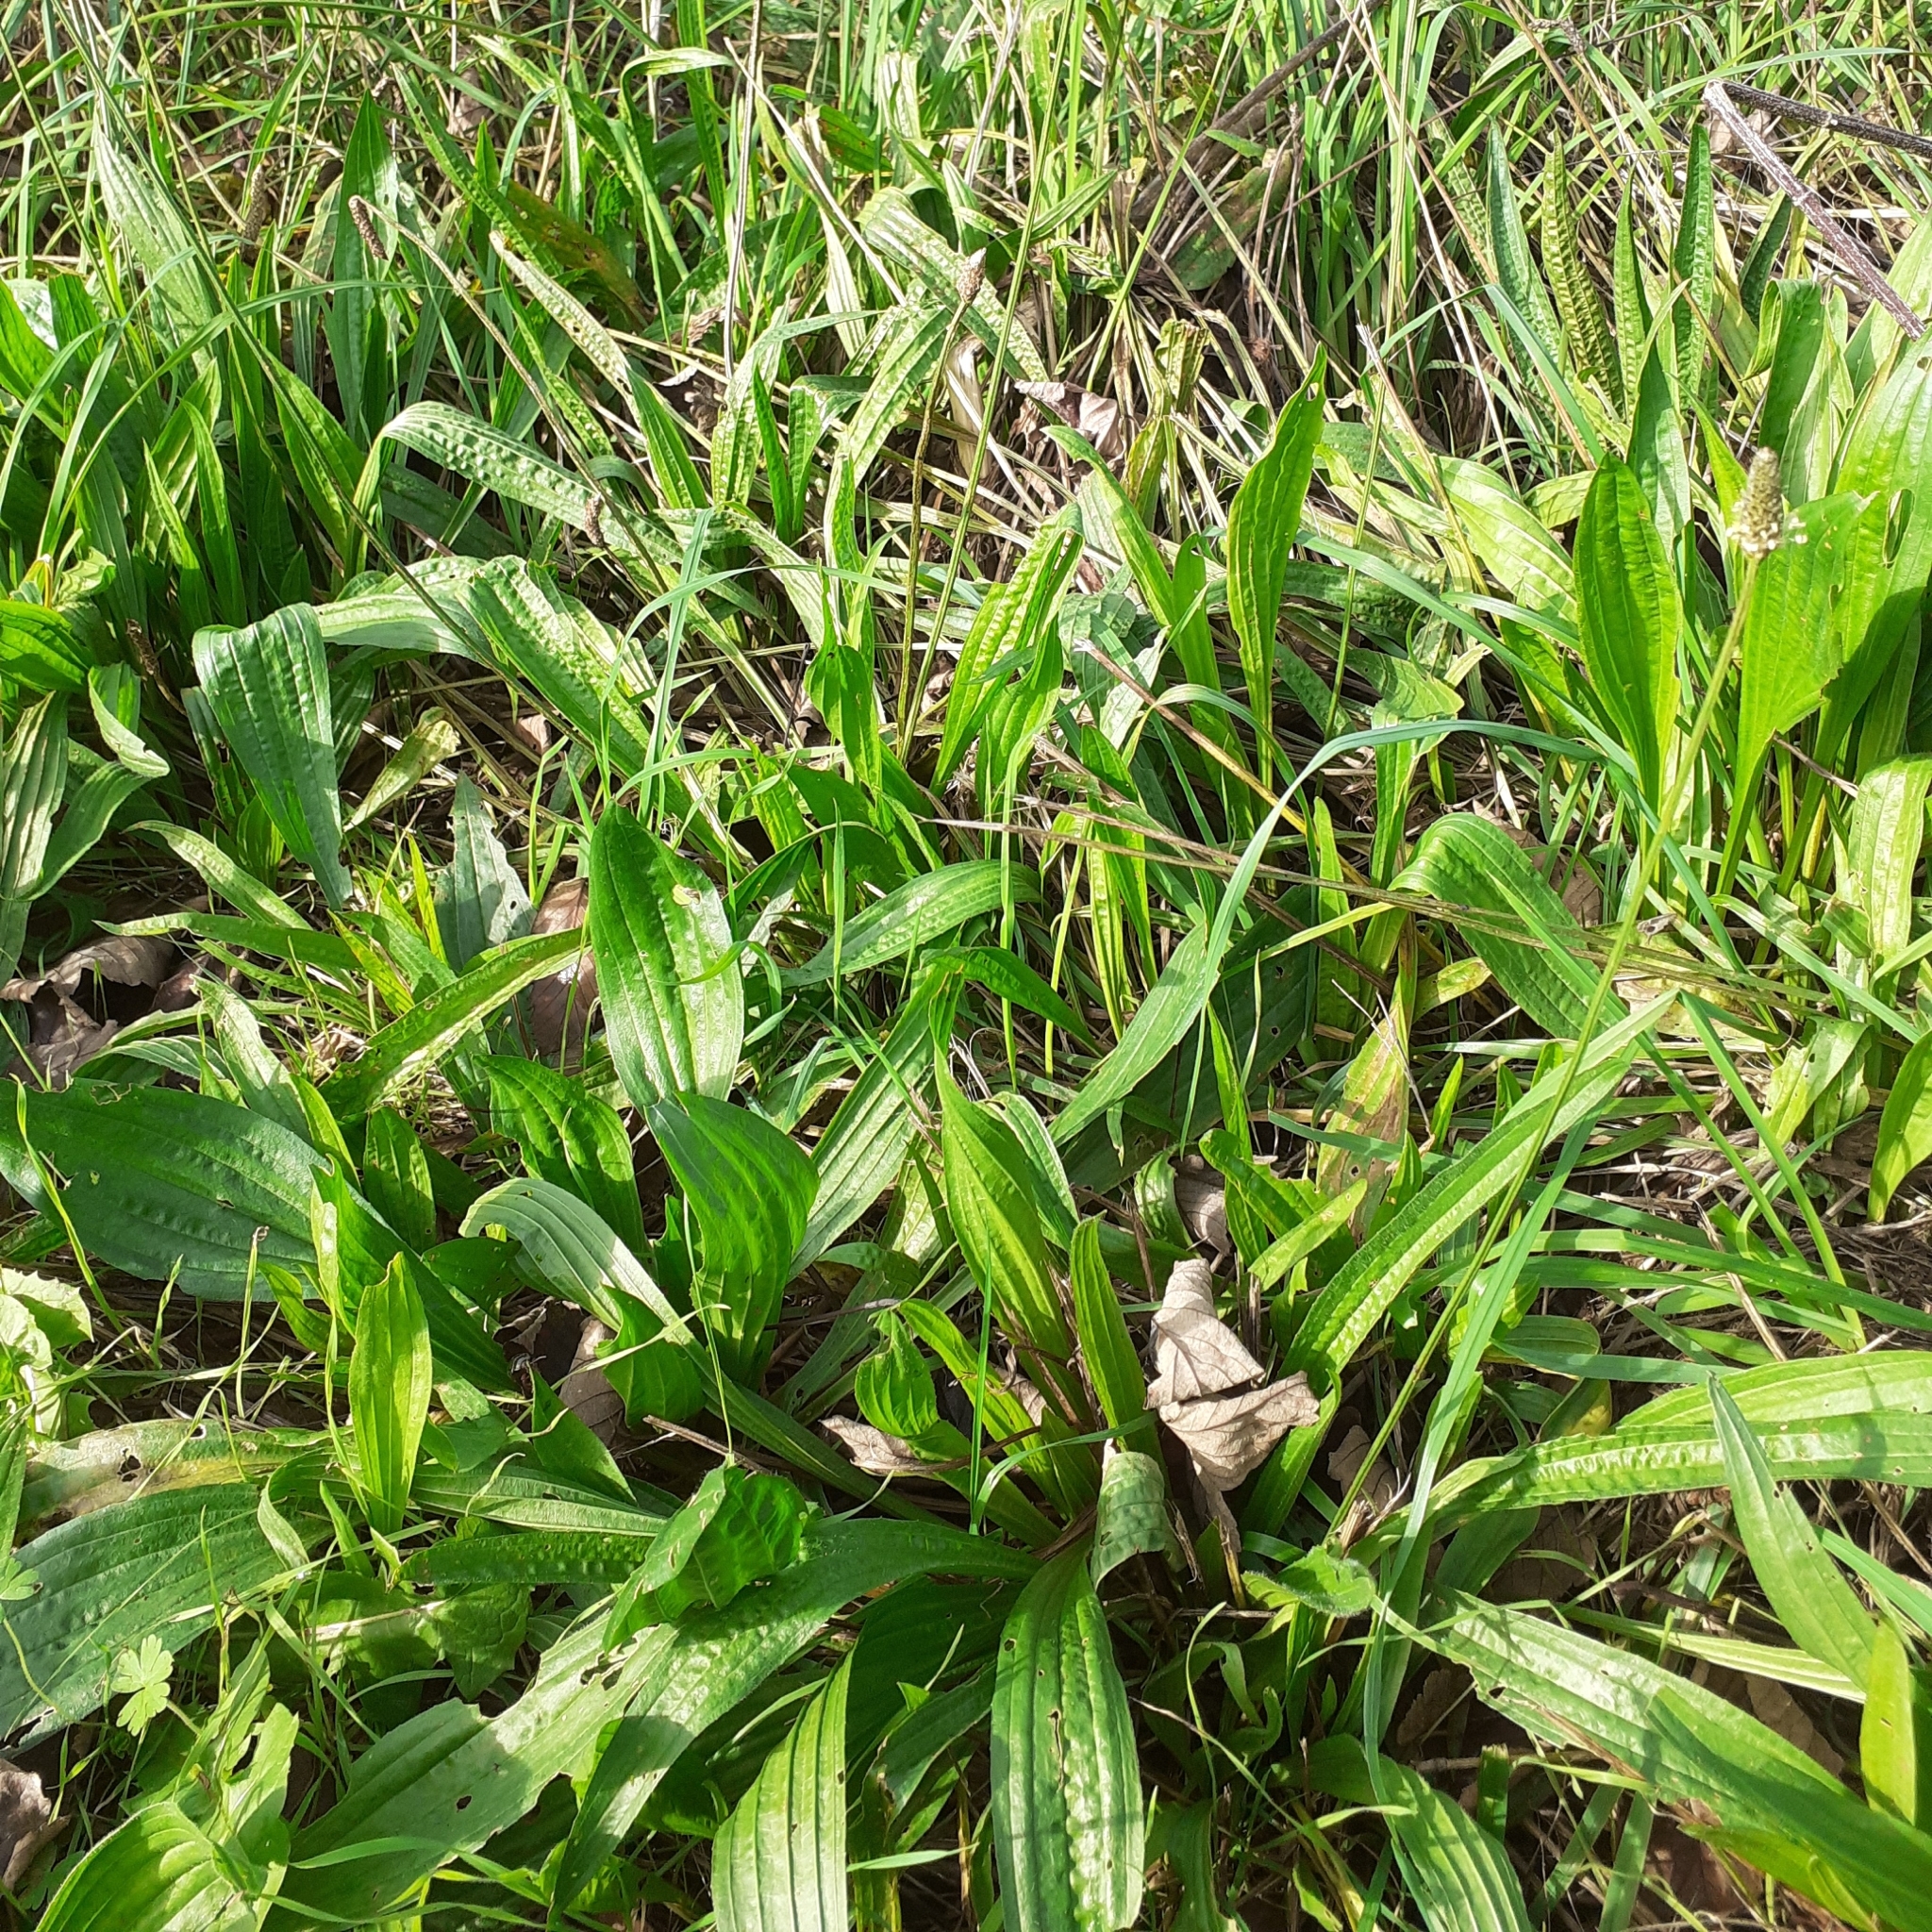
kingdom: Plantae
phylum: Tracheophyta
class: Magnoliopsida
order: Lamiales
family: Plantaginaceae
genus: Plantago
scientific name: Plantago lanceolata
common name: Ribwort plantain
